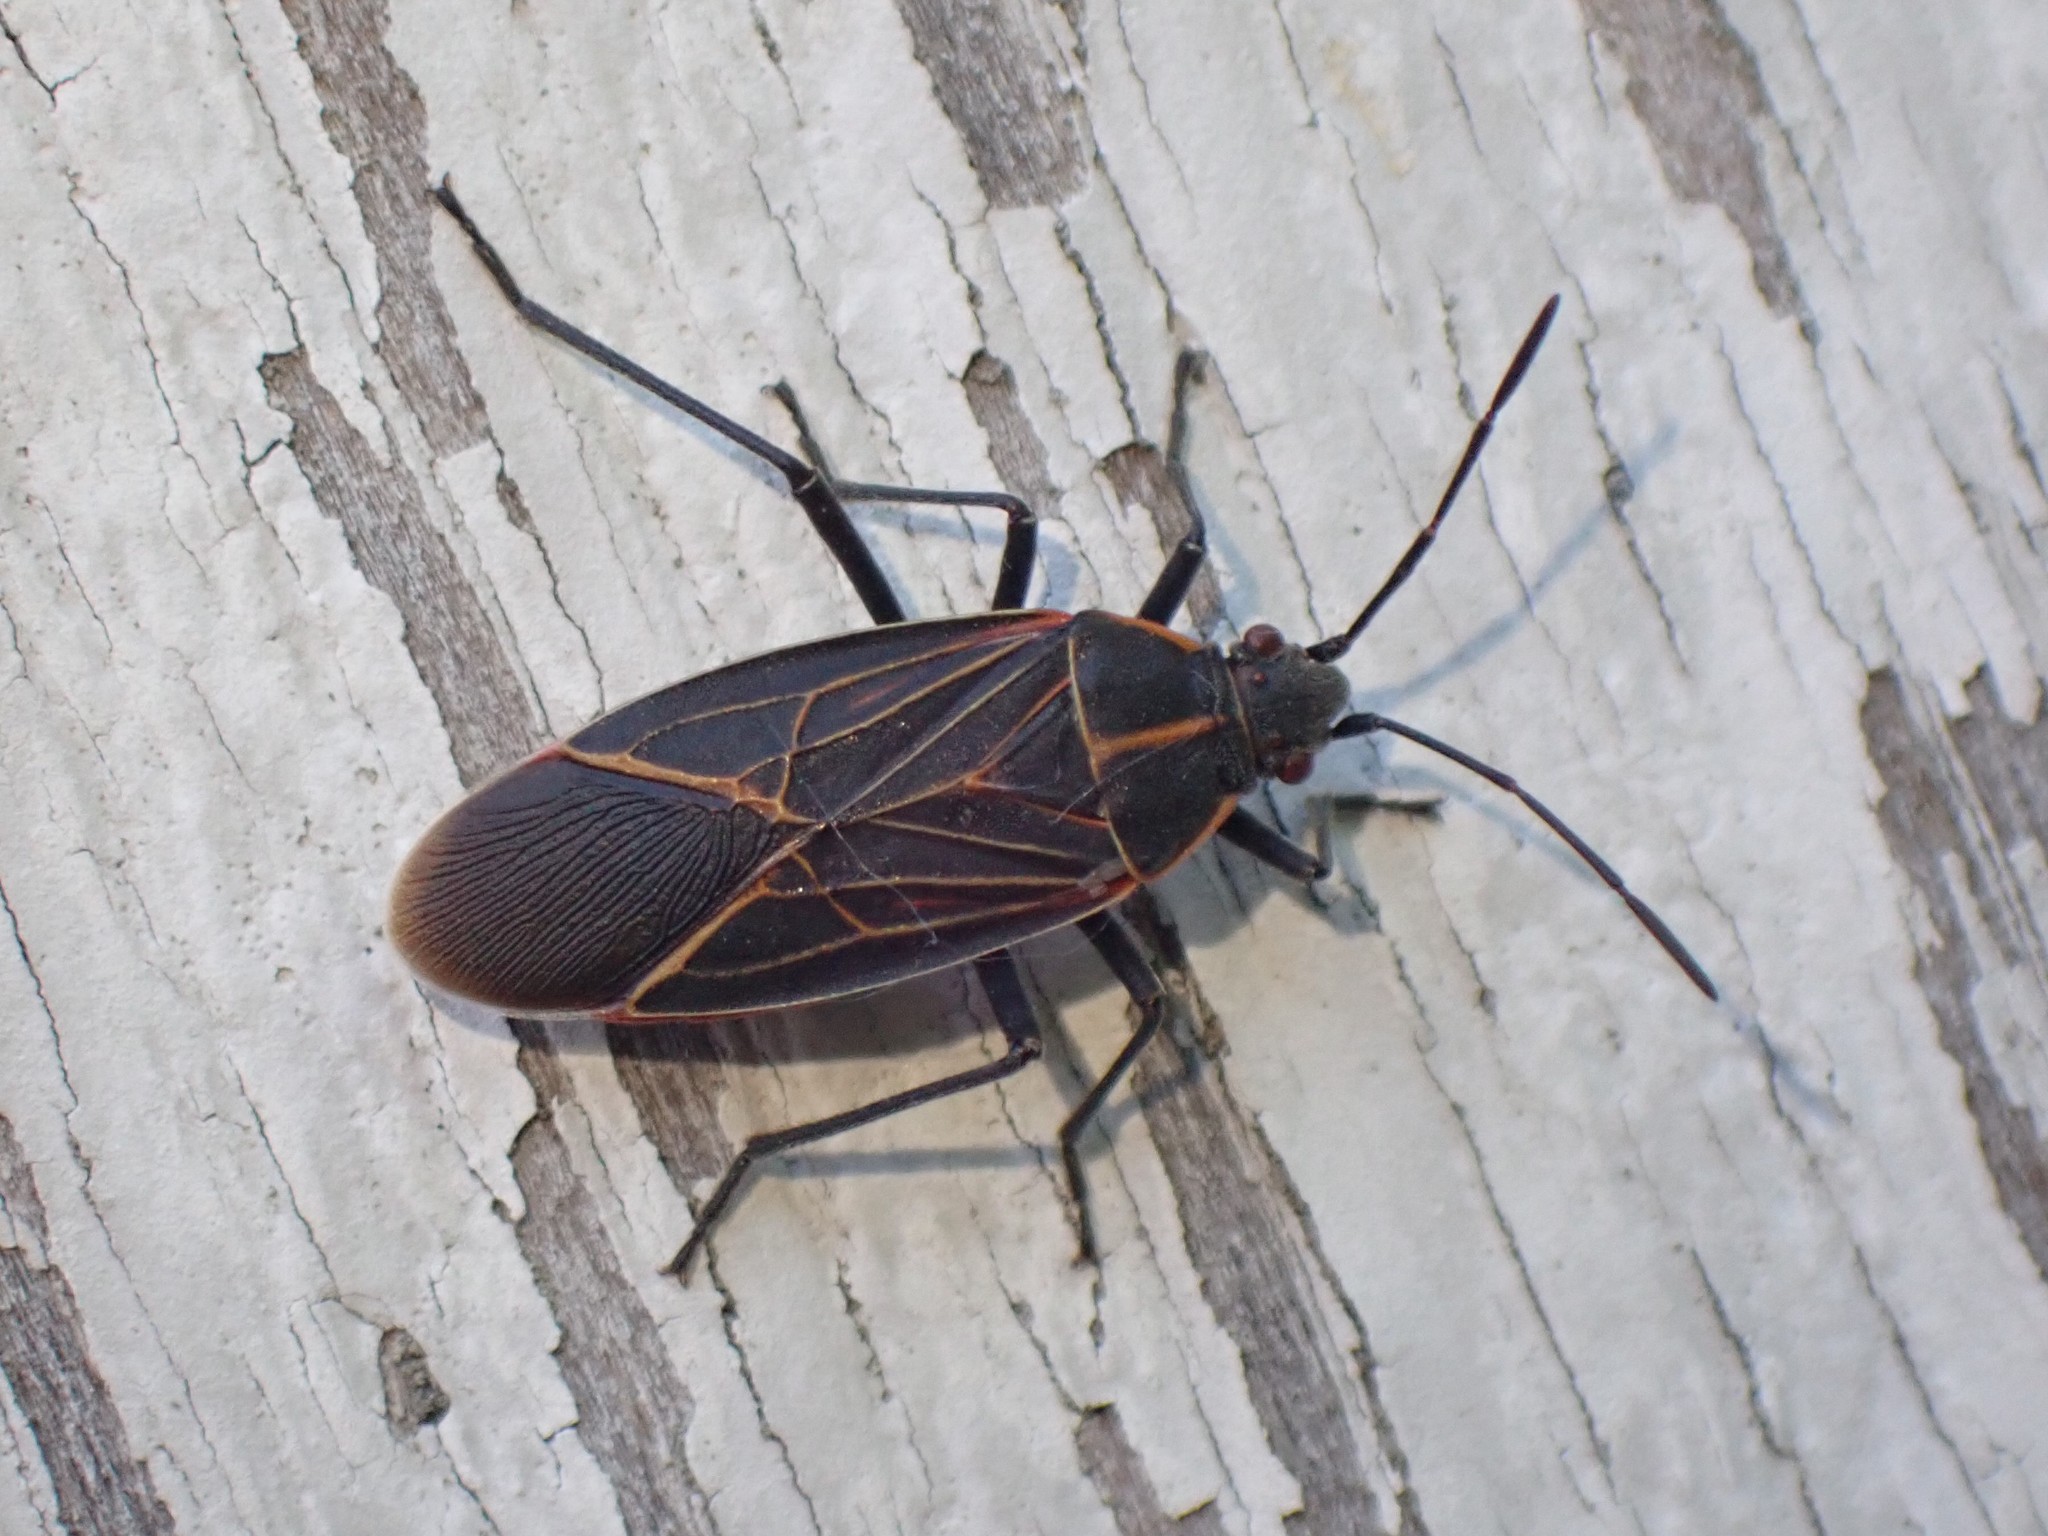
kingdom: Animalia
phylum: Arthropoda
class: Insecta
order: Hemiptera
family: Rhopalidae
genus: Boisea
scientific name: Boisea rubrolineata
